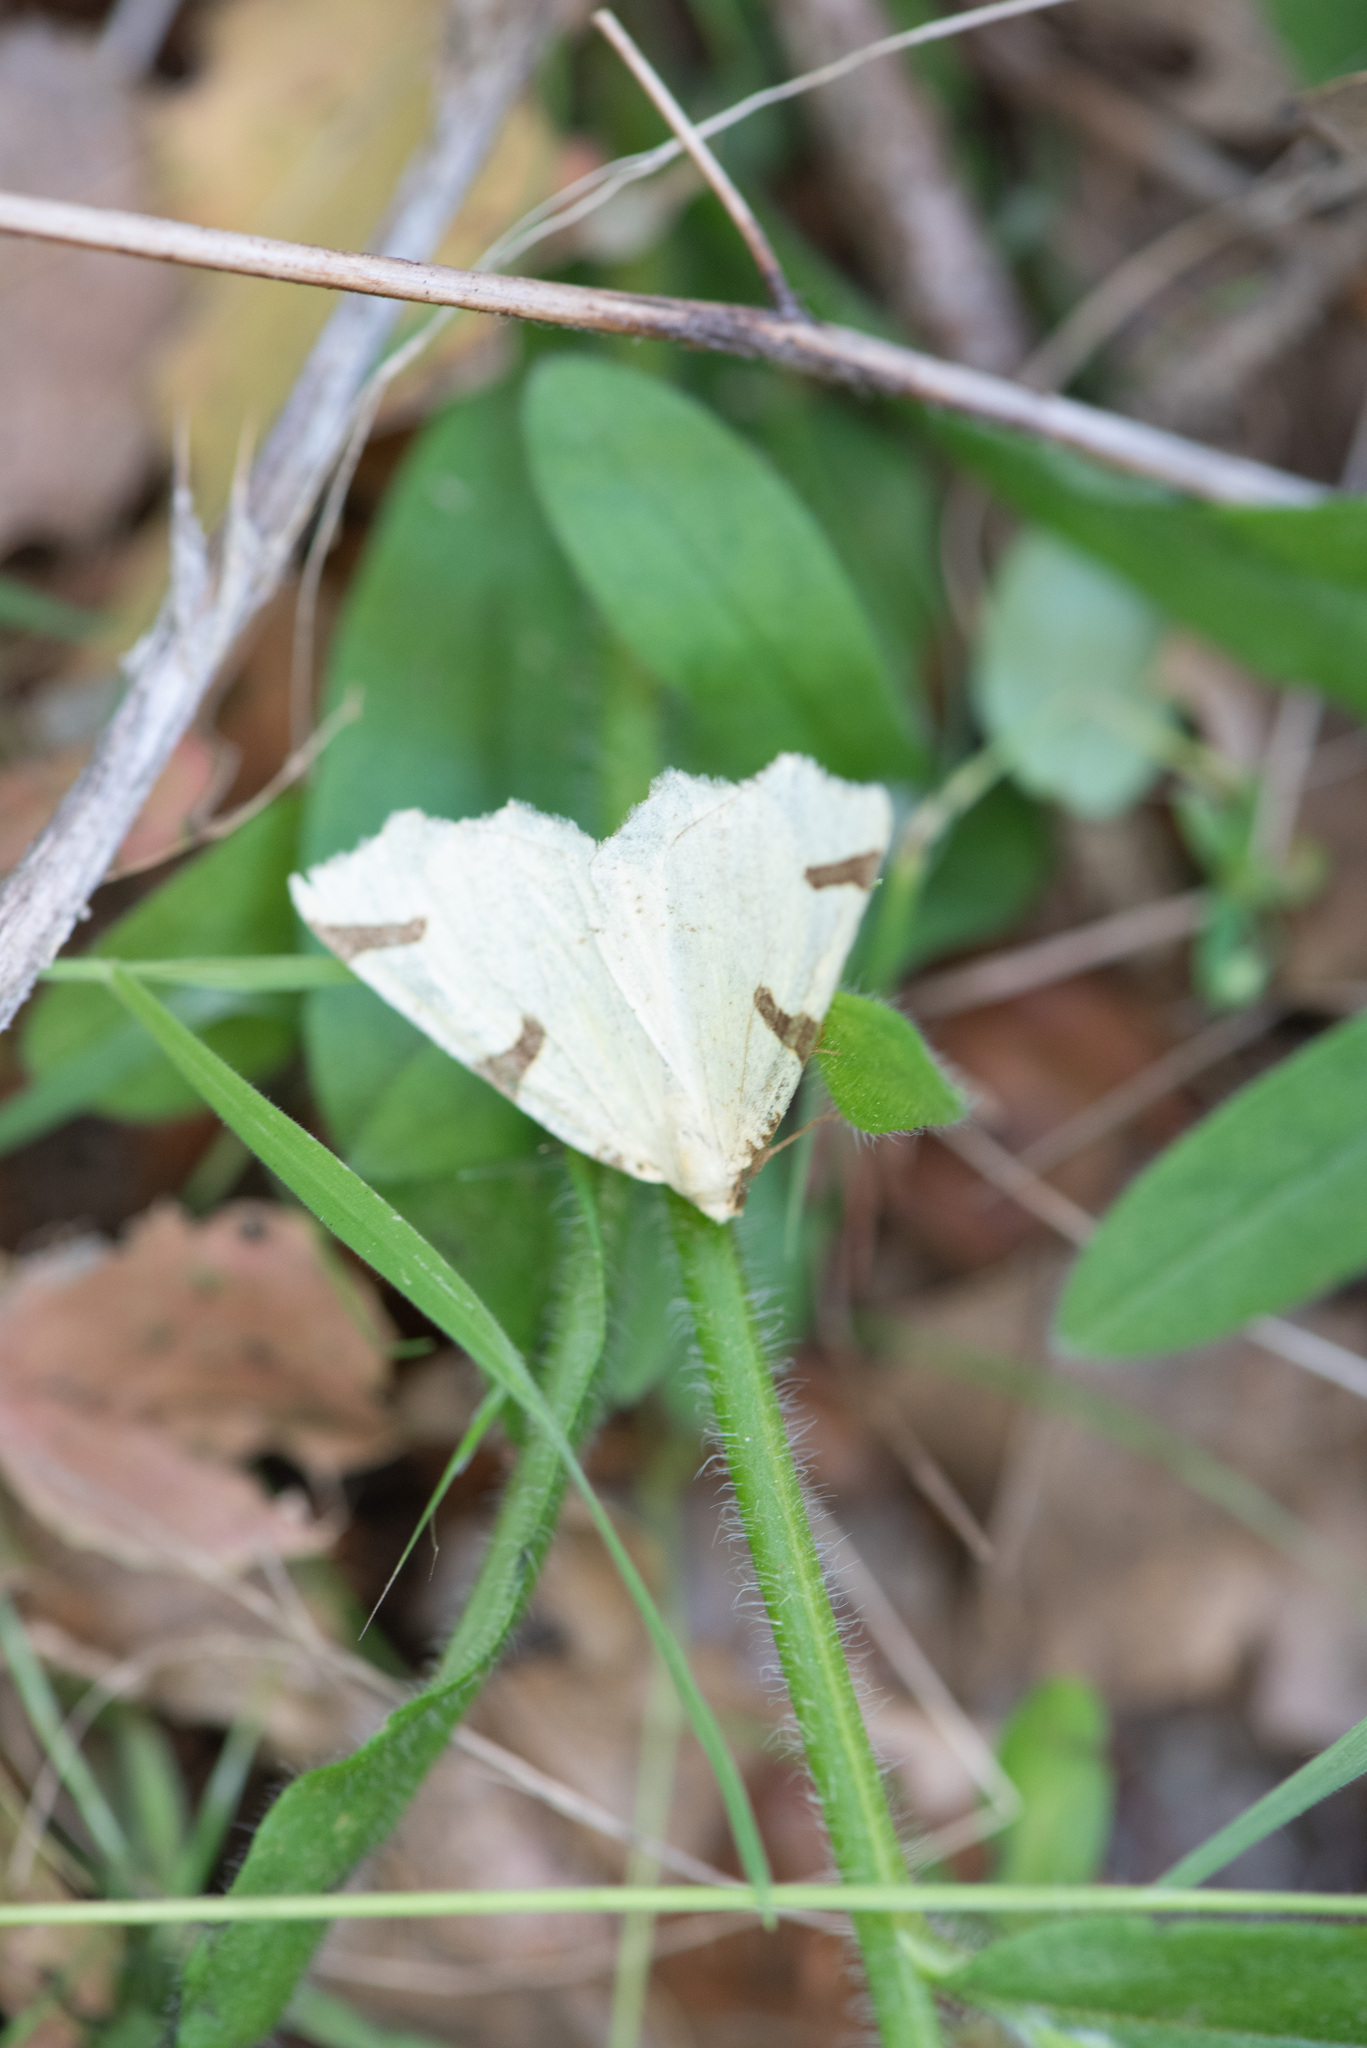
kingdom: Animalia
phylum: Arthropoda
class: Insecta
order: Lepidoptera
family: Geometridae
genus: Neoterpes
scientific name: Neoterpes trianguliferata
